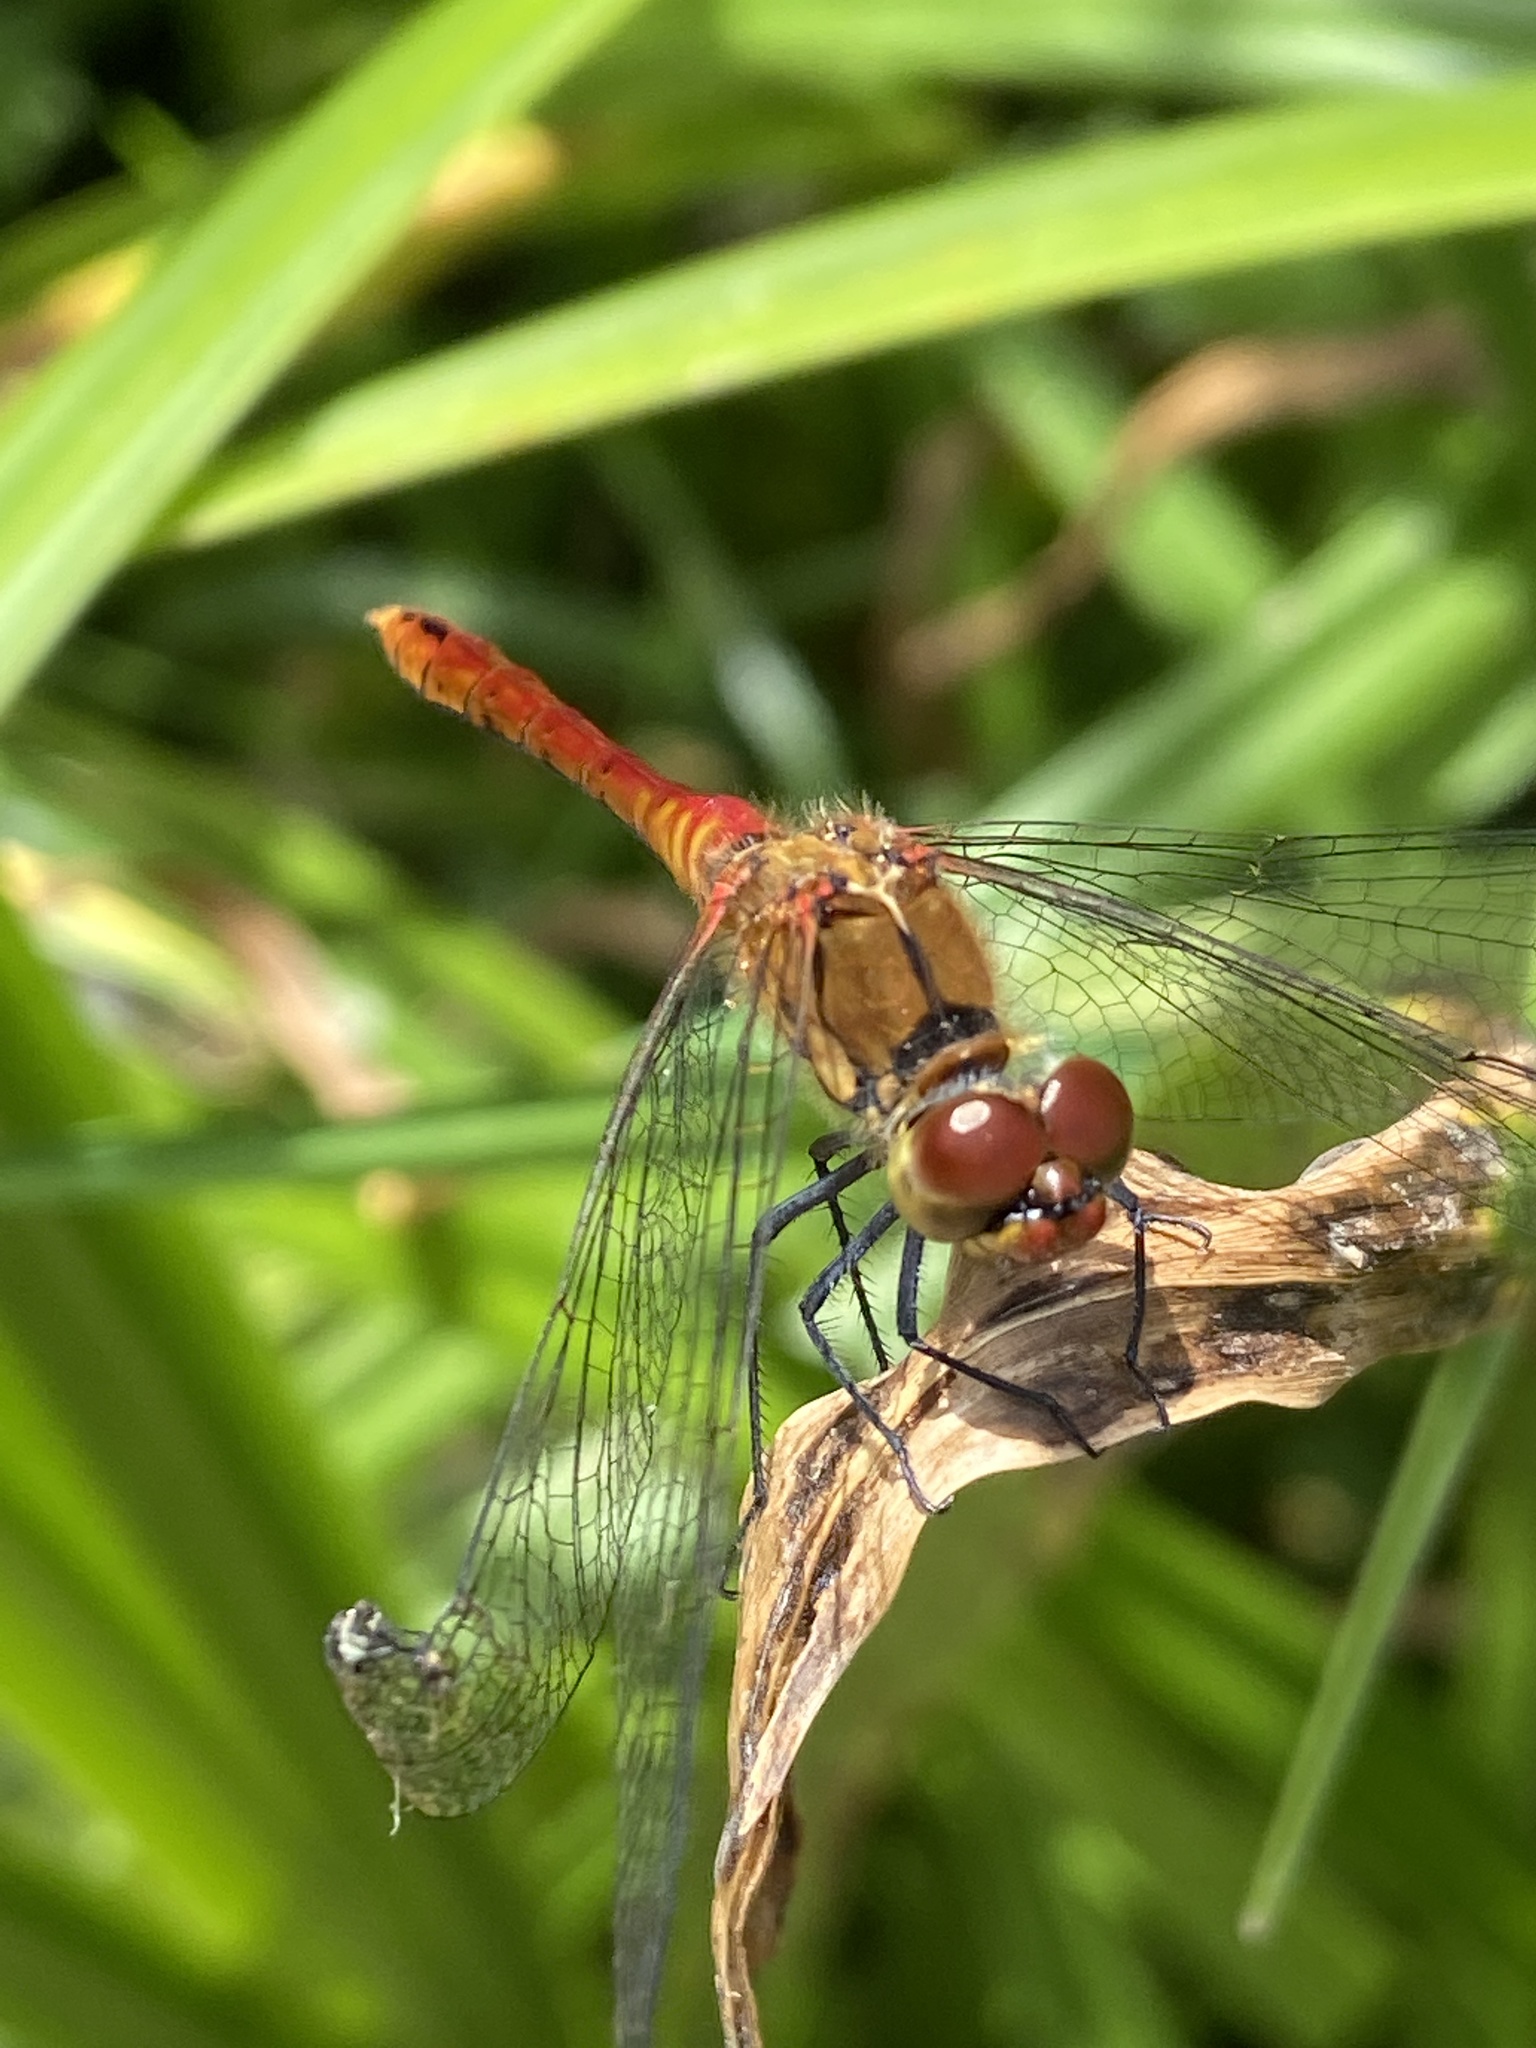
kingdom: Animalia
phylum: Arthropoda
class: Insecta
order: Odonata
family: Libellulidae
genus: Sympetrum
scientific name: Sympetrum sanguineum
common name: Ruddy darter
